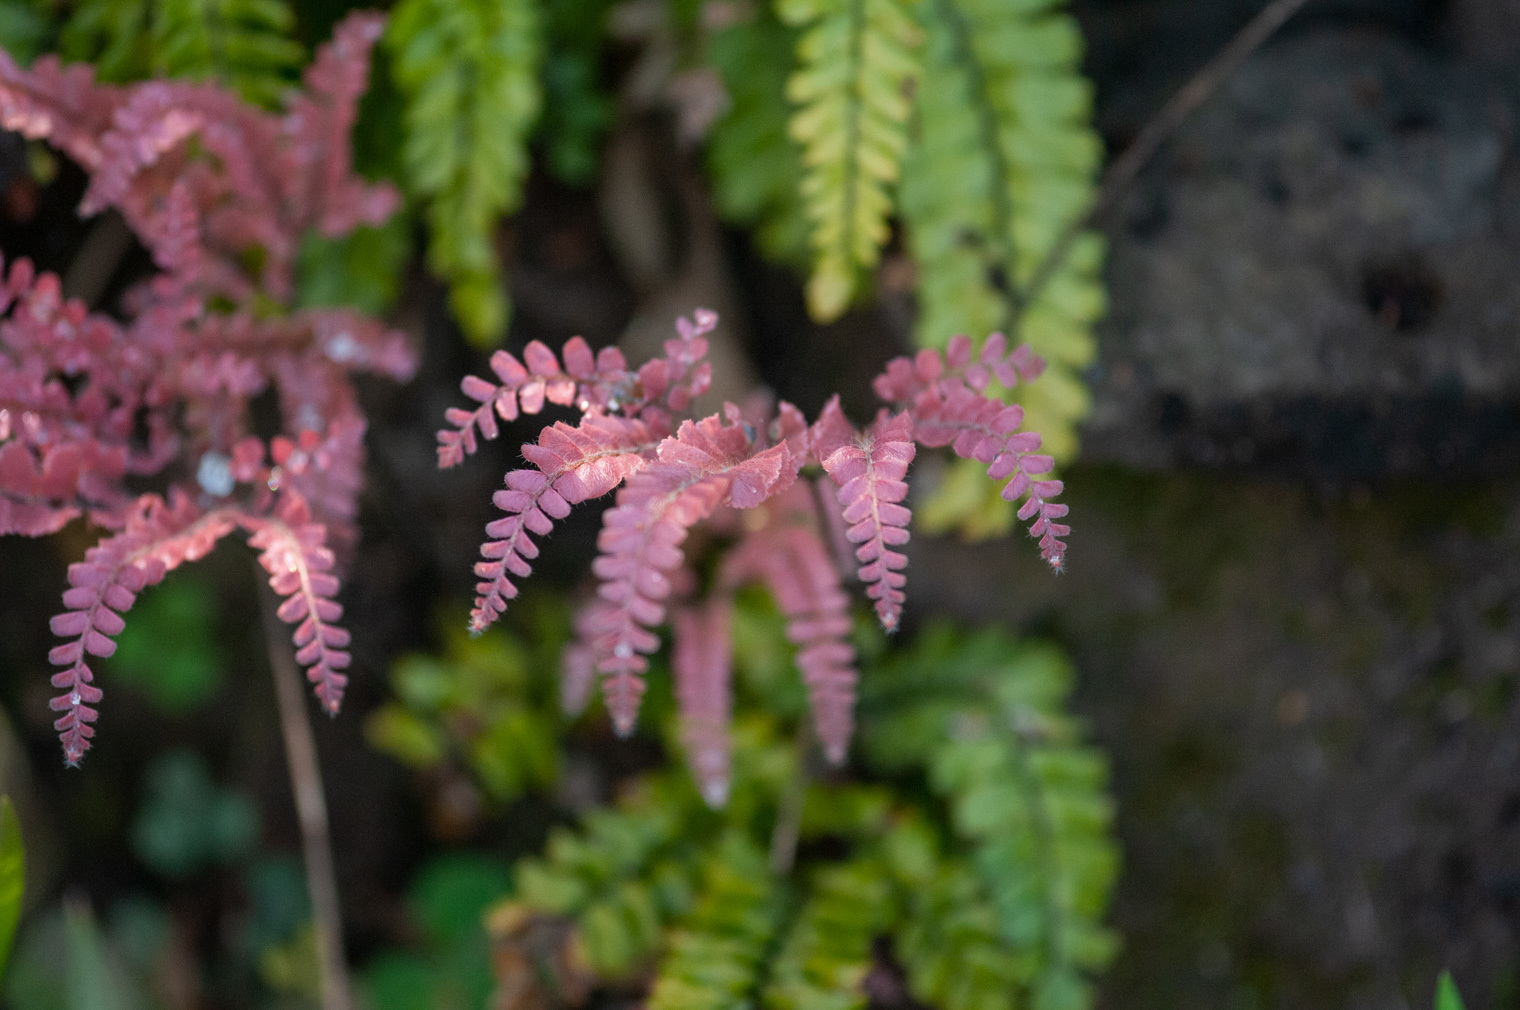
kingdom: Plantae
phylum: Tracheophyta
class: Polypodiopsida
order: Polypodiales
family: Pteridaceae
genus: Adiantum
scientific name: Adiantum hispidulum
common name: Rough maidenhair
